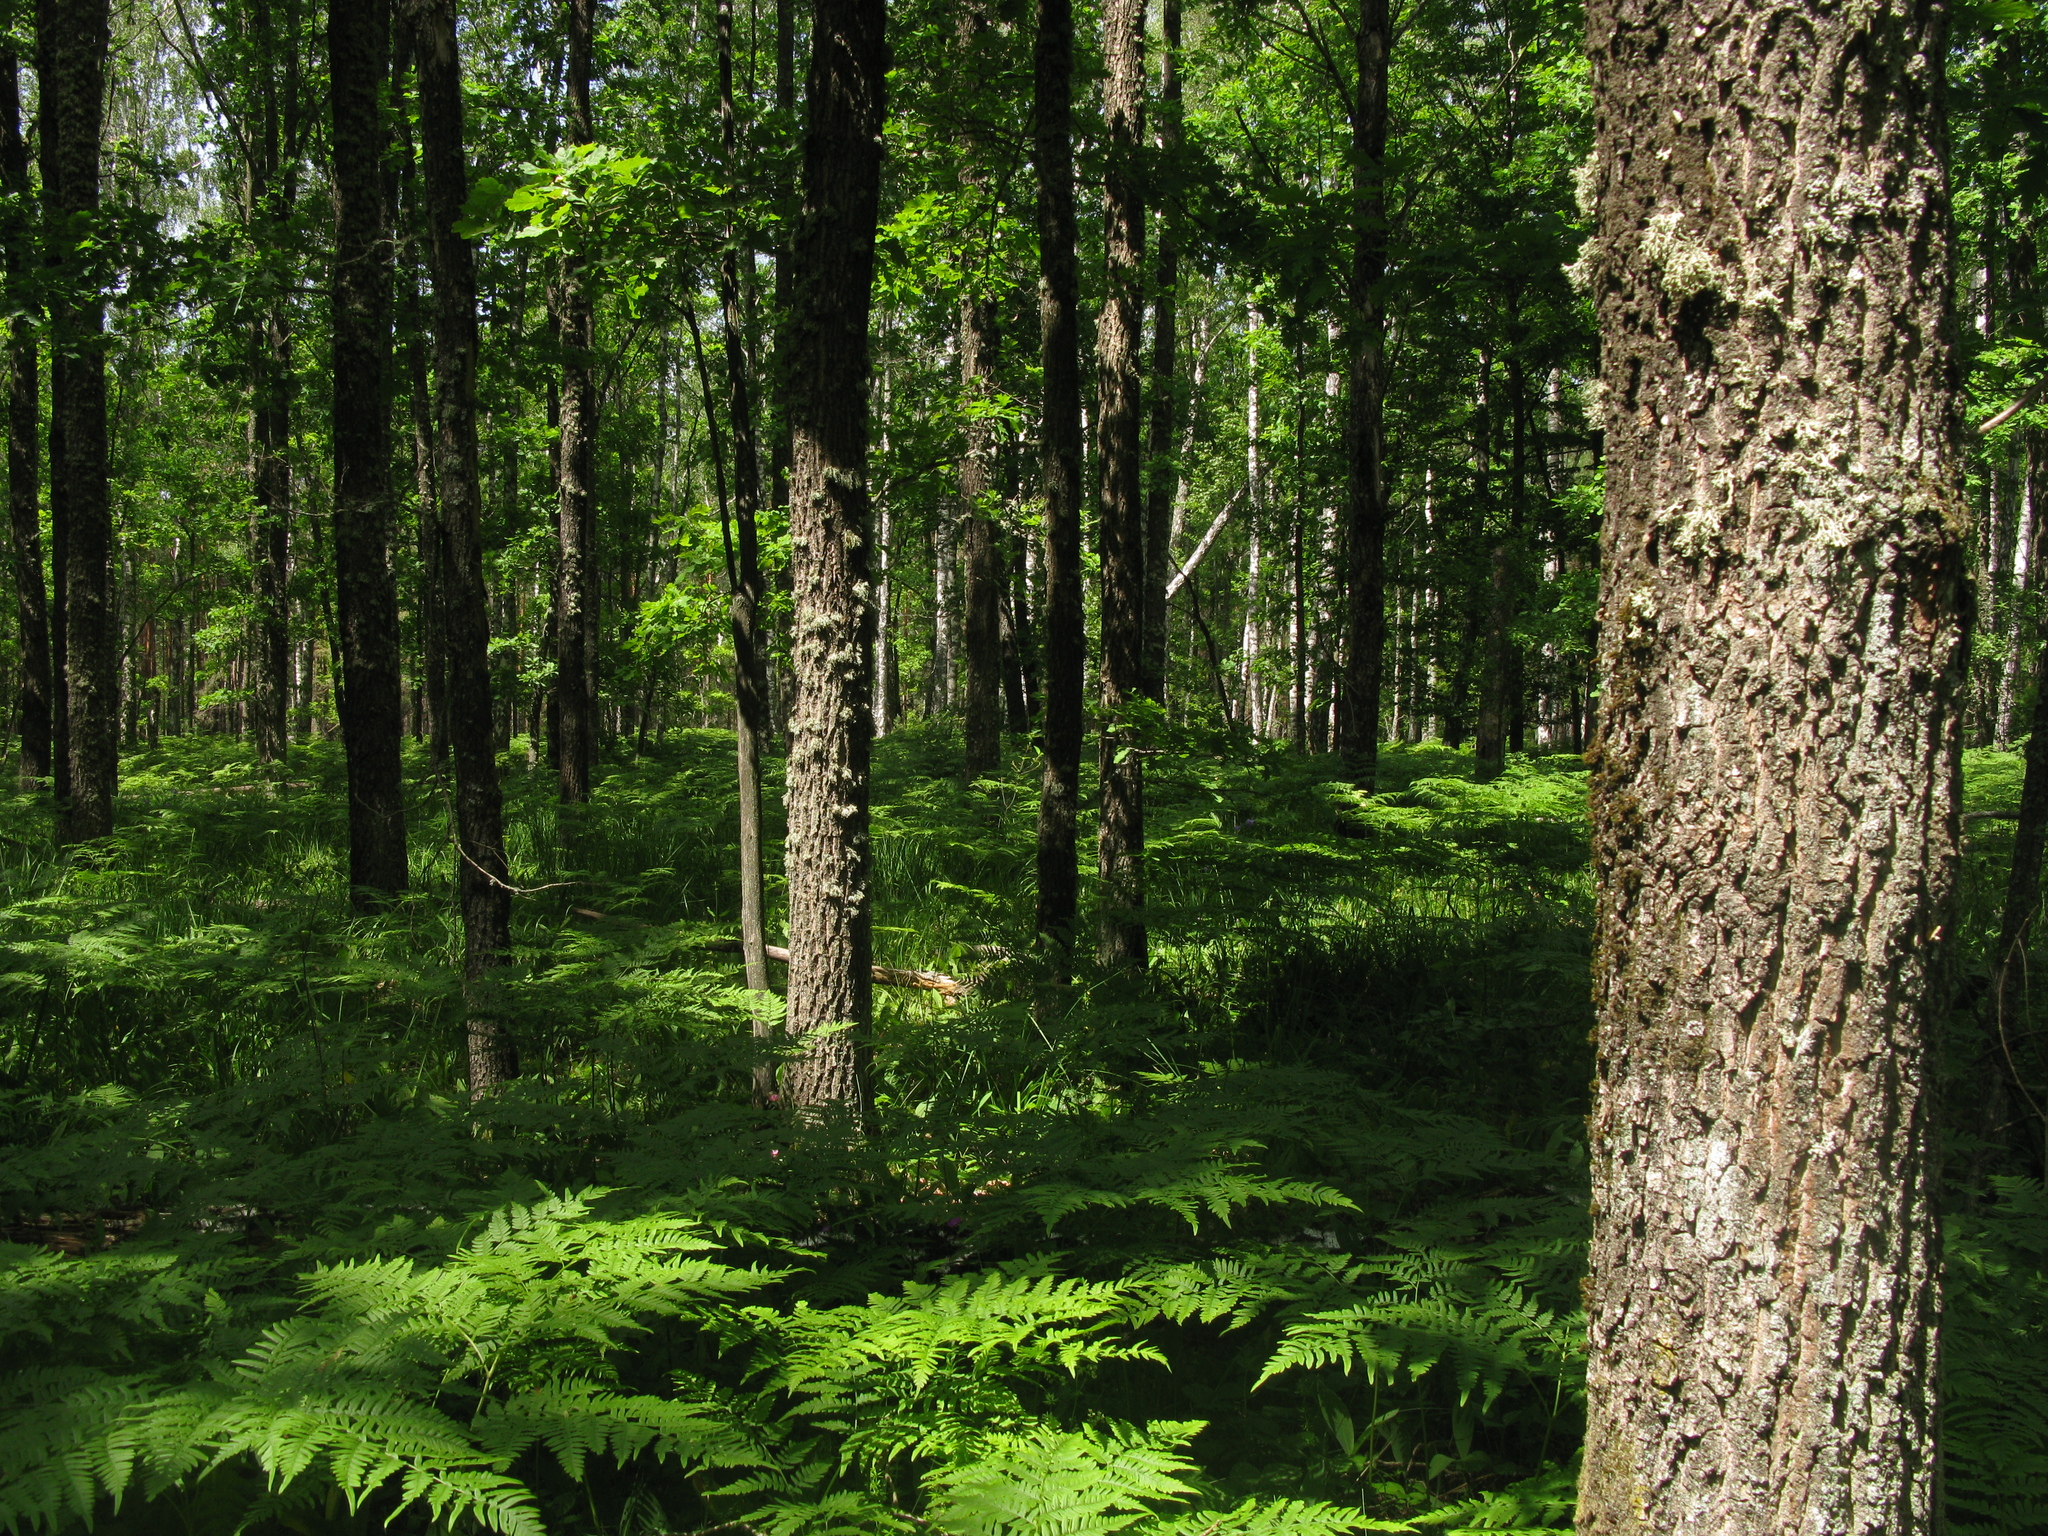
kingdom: Plantae
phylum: Tracheophyta
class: Magnoliopsida
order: Fagales
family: Fagaceae
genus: Quercus
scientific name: Quercus robur
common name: Pedunculate oak
